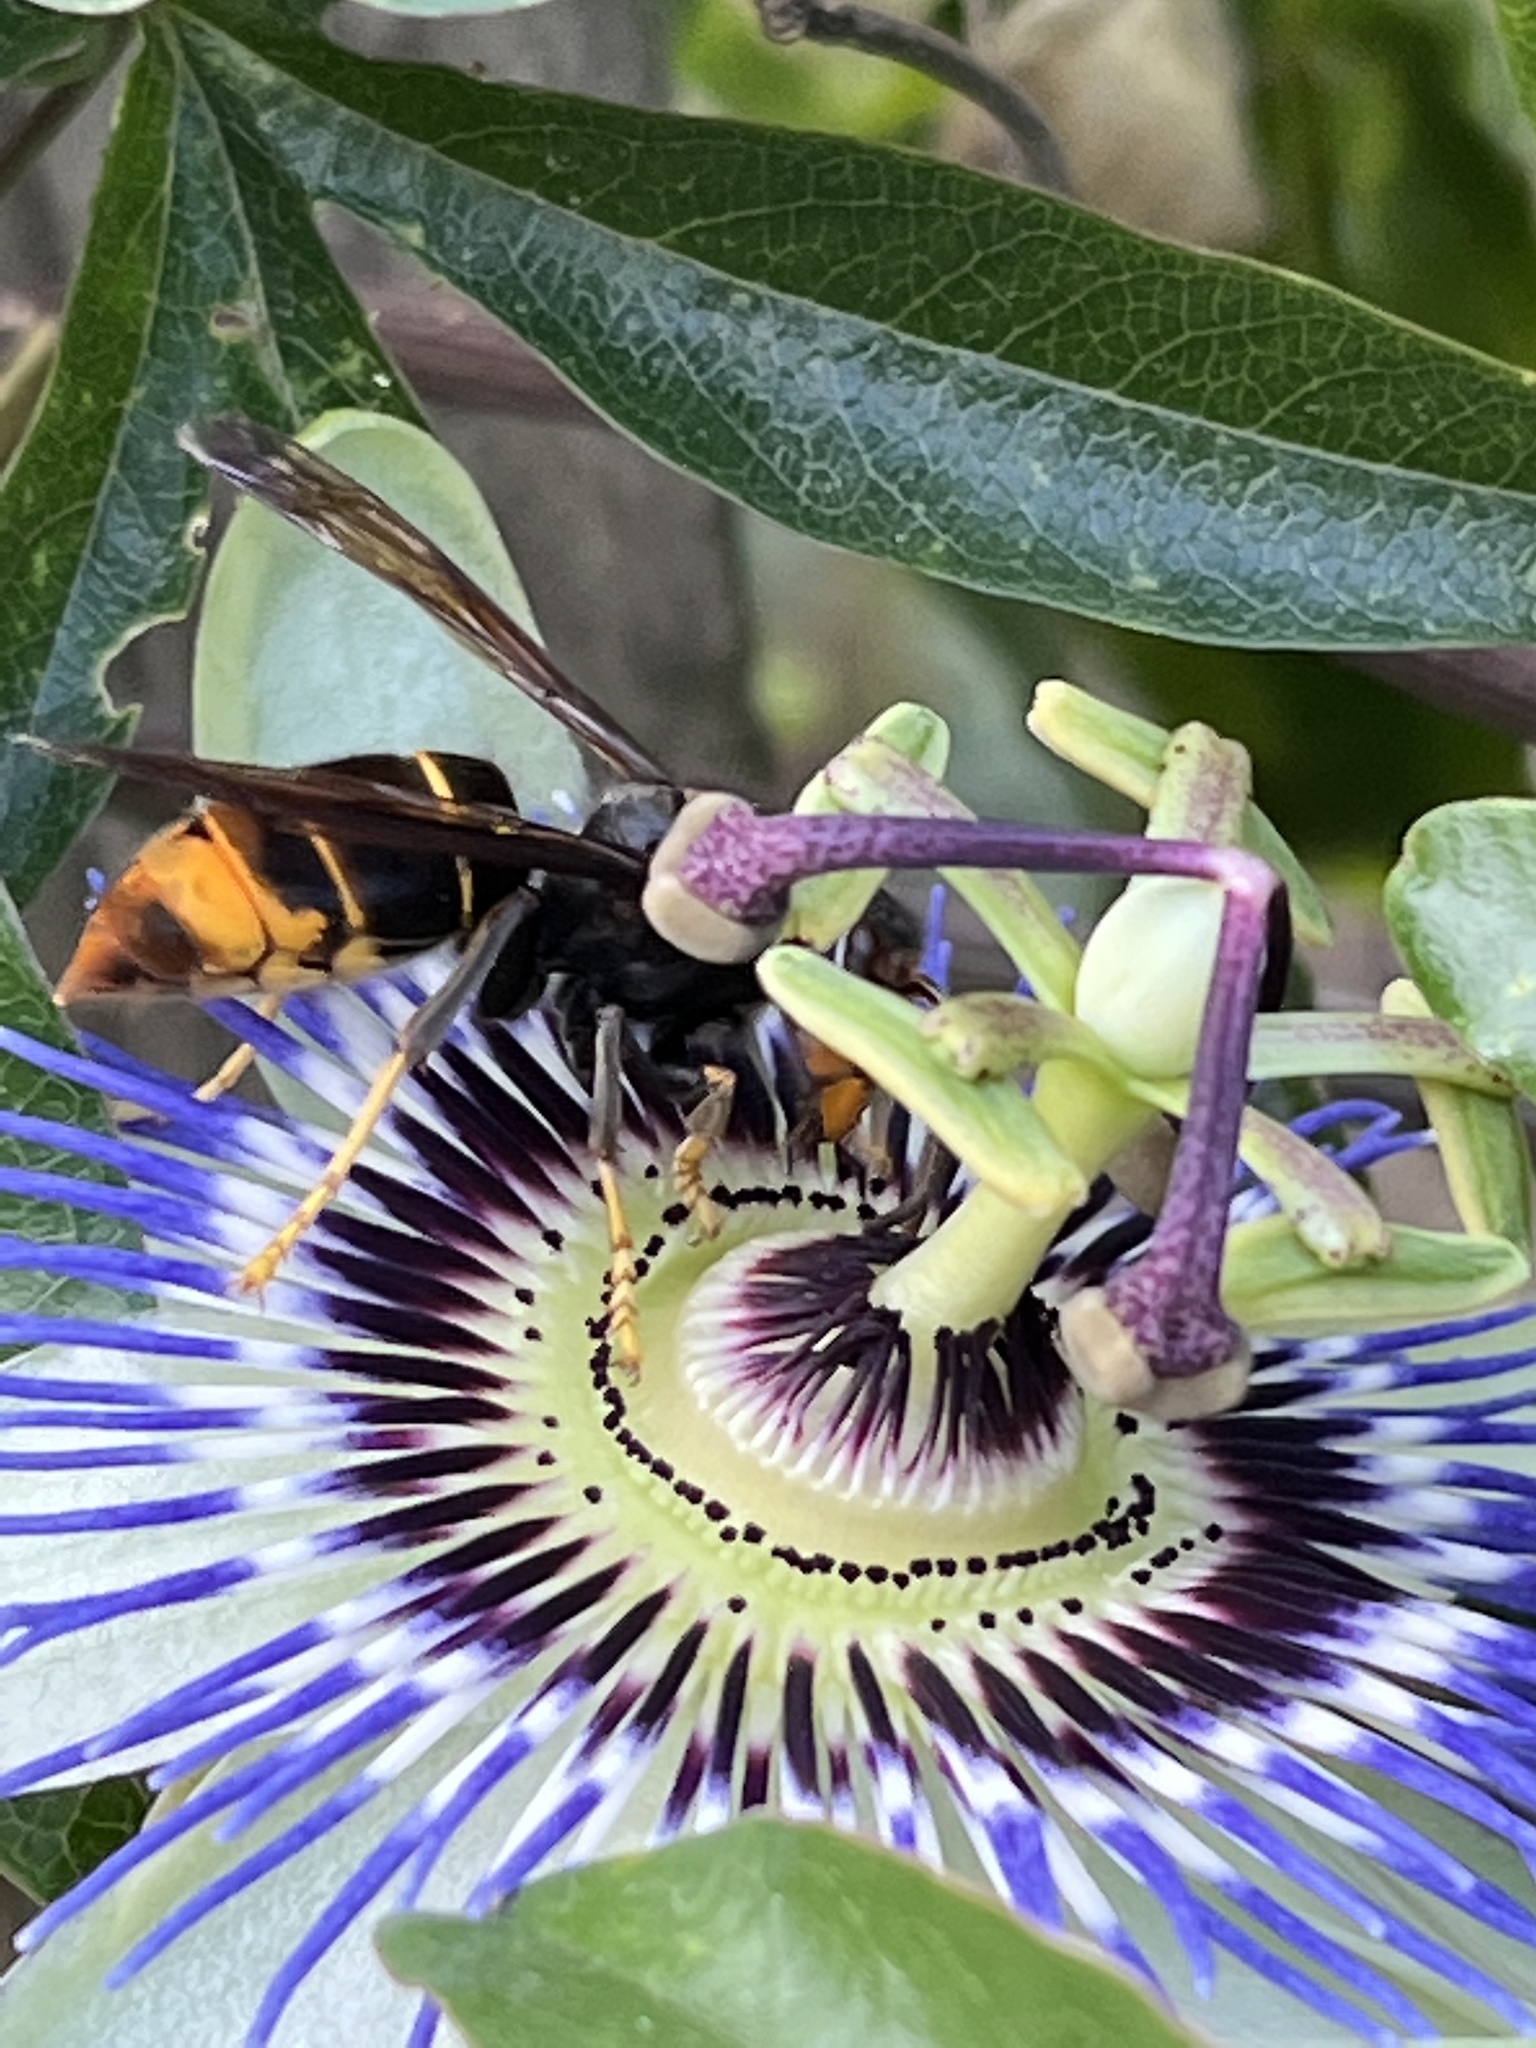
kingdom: Animalia
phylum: Arthropoda
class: Insecta
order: Hymenoptera
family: Vespidae
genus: Vespa
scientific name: Vespa velutina
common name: Asian hornet
